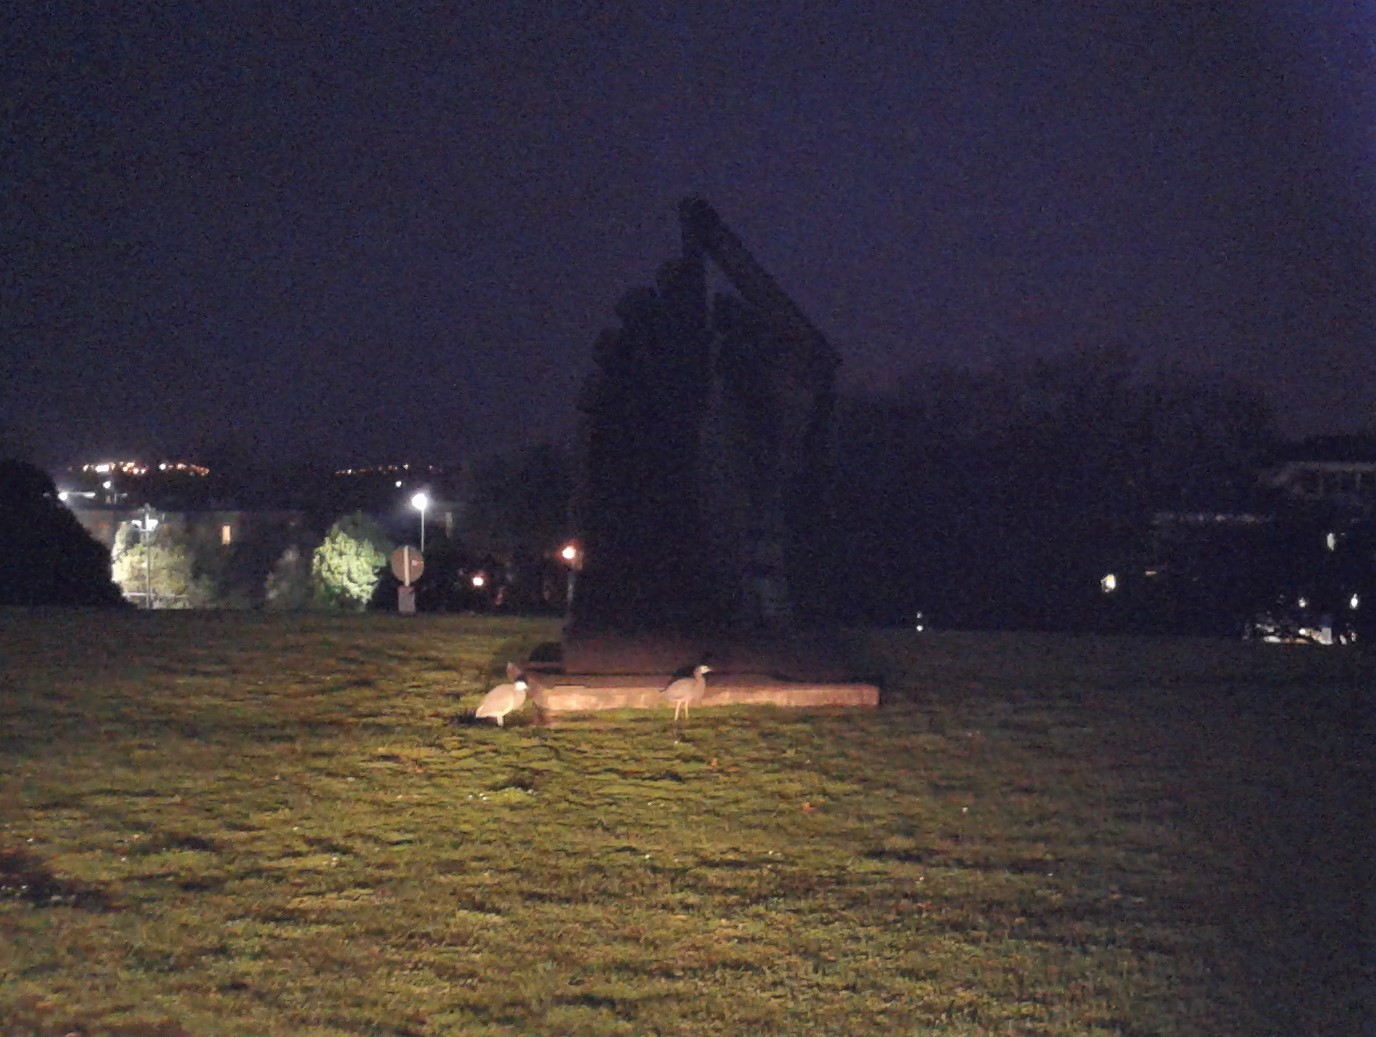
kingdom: Animalia
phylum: Chordata
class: Aves
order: Pelecaniformes
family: Ardeidae
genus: Egretta
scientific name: Egretta novaehollandiae
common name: White-faced heron
